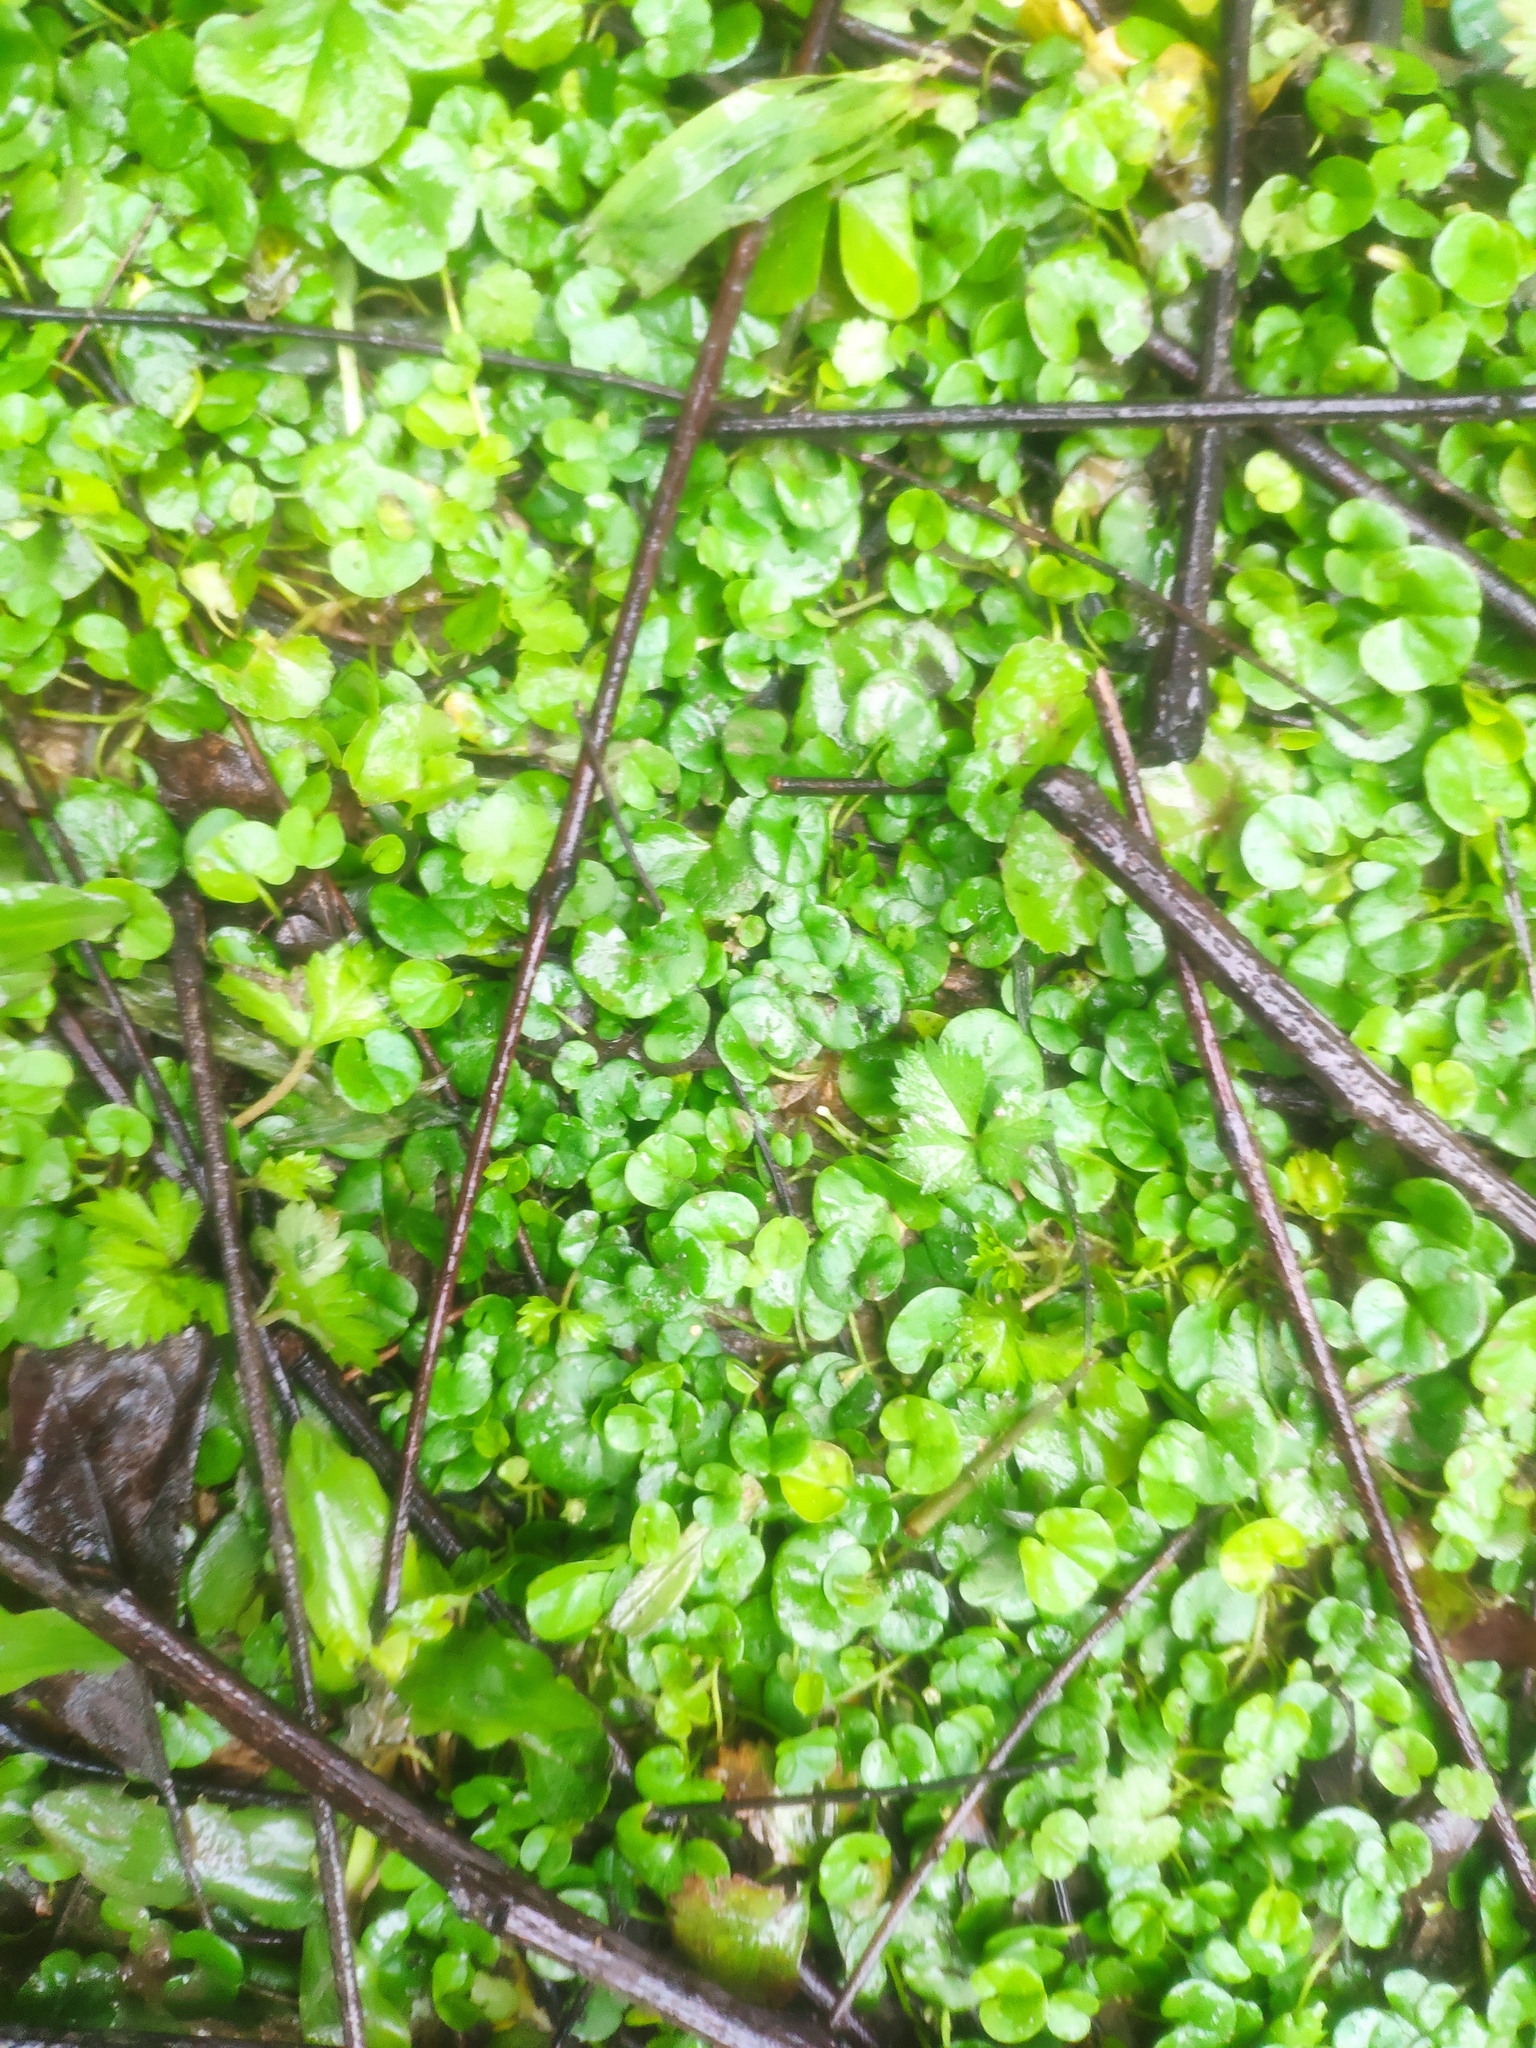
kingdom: Plantae
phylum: Tracheophyta
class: Magnoliopsida
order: Solanales
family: Convolvulaceae
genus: Dichondra
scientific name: Dichondra micrantha
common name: Kidneyweed
